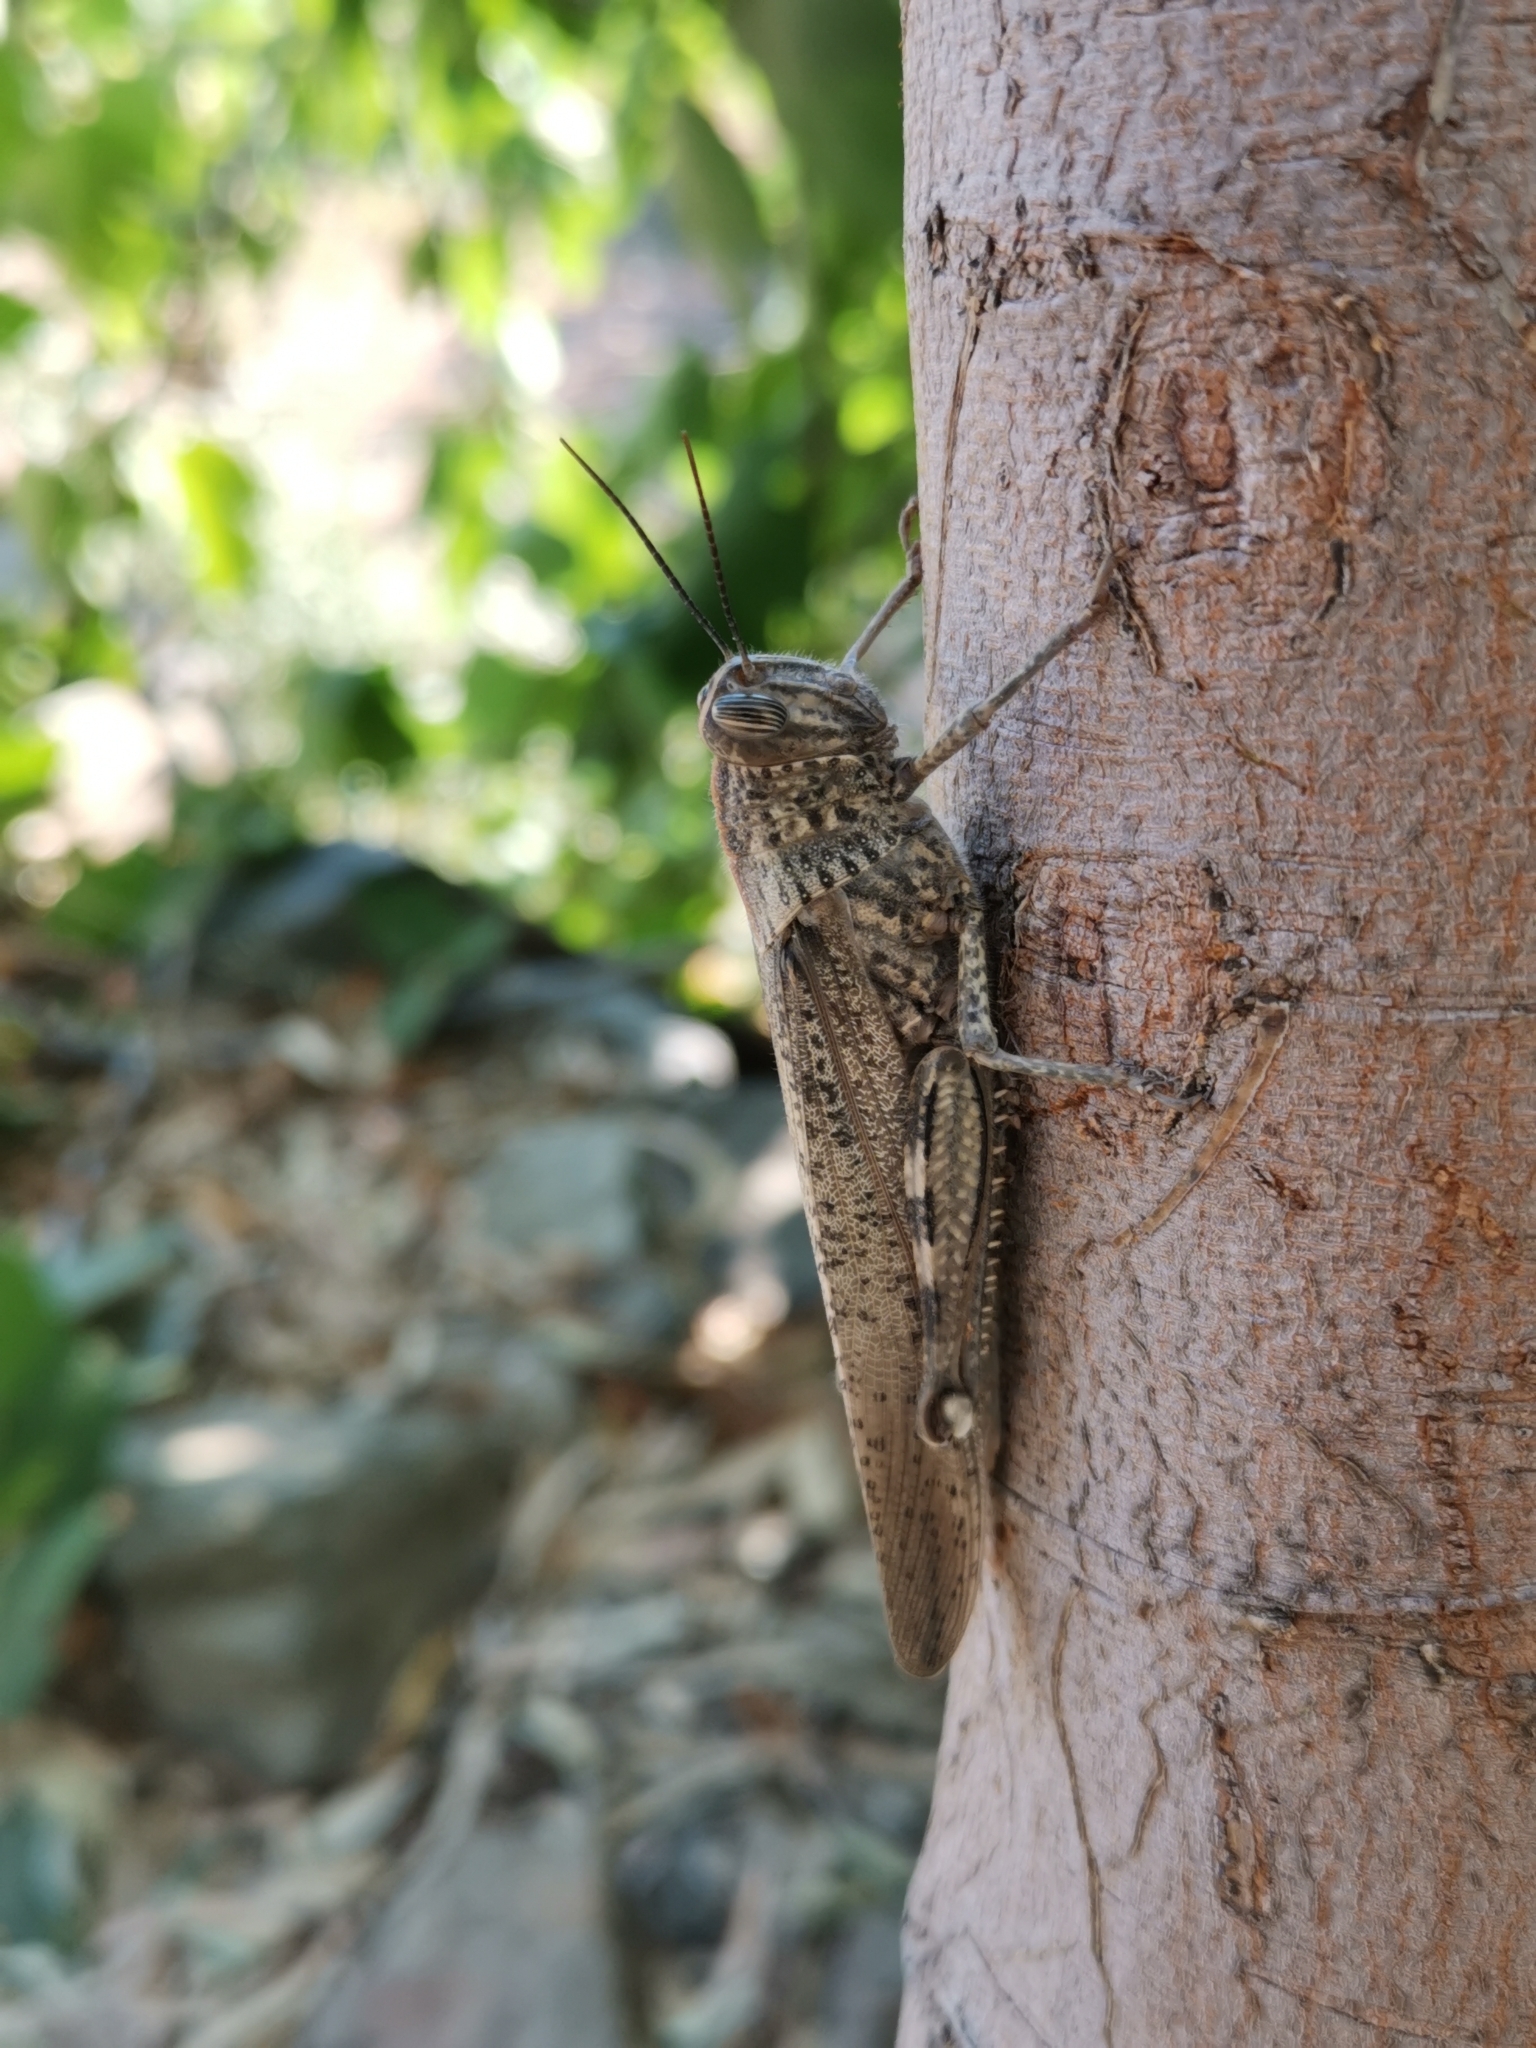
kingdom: Animalia
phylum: Arthropoda
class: Insecta
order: Orthoptera
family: Acrididae
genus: Anacridium
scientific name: Anacridium aegyptium
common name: Egyptian grasshopper
